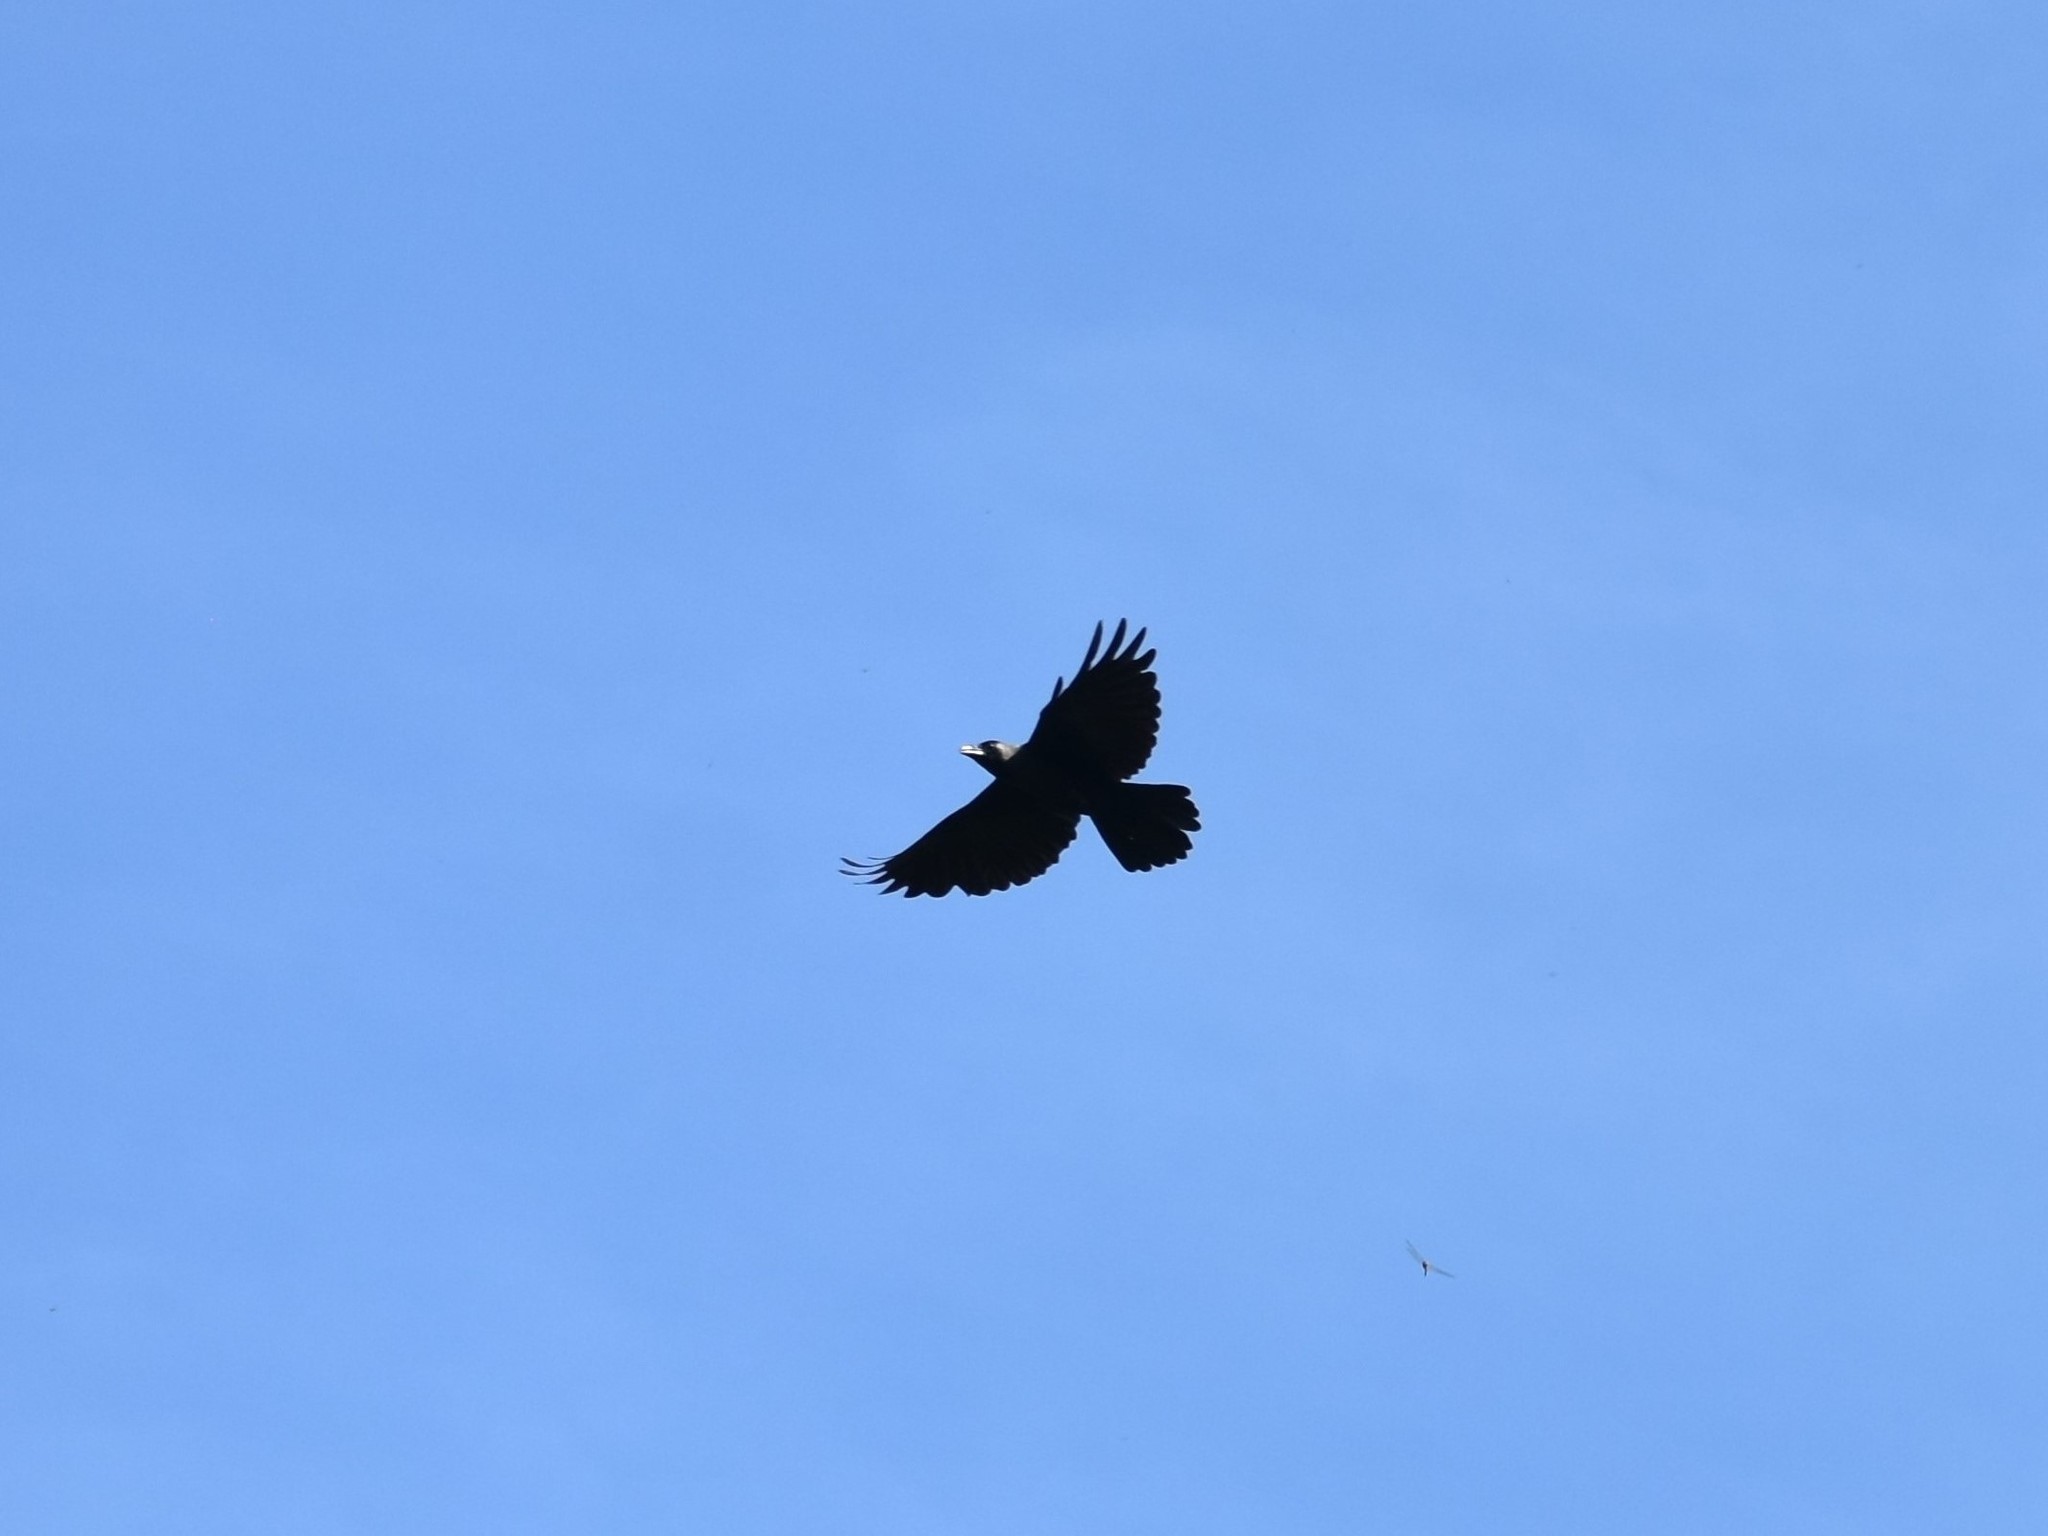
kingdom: Animalia
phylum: Chordata
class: Aves
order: Passeriformes
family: Corvidae
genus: Corvus
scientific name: Corvus splendens
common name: House crow
